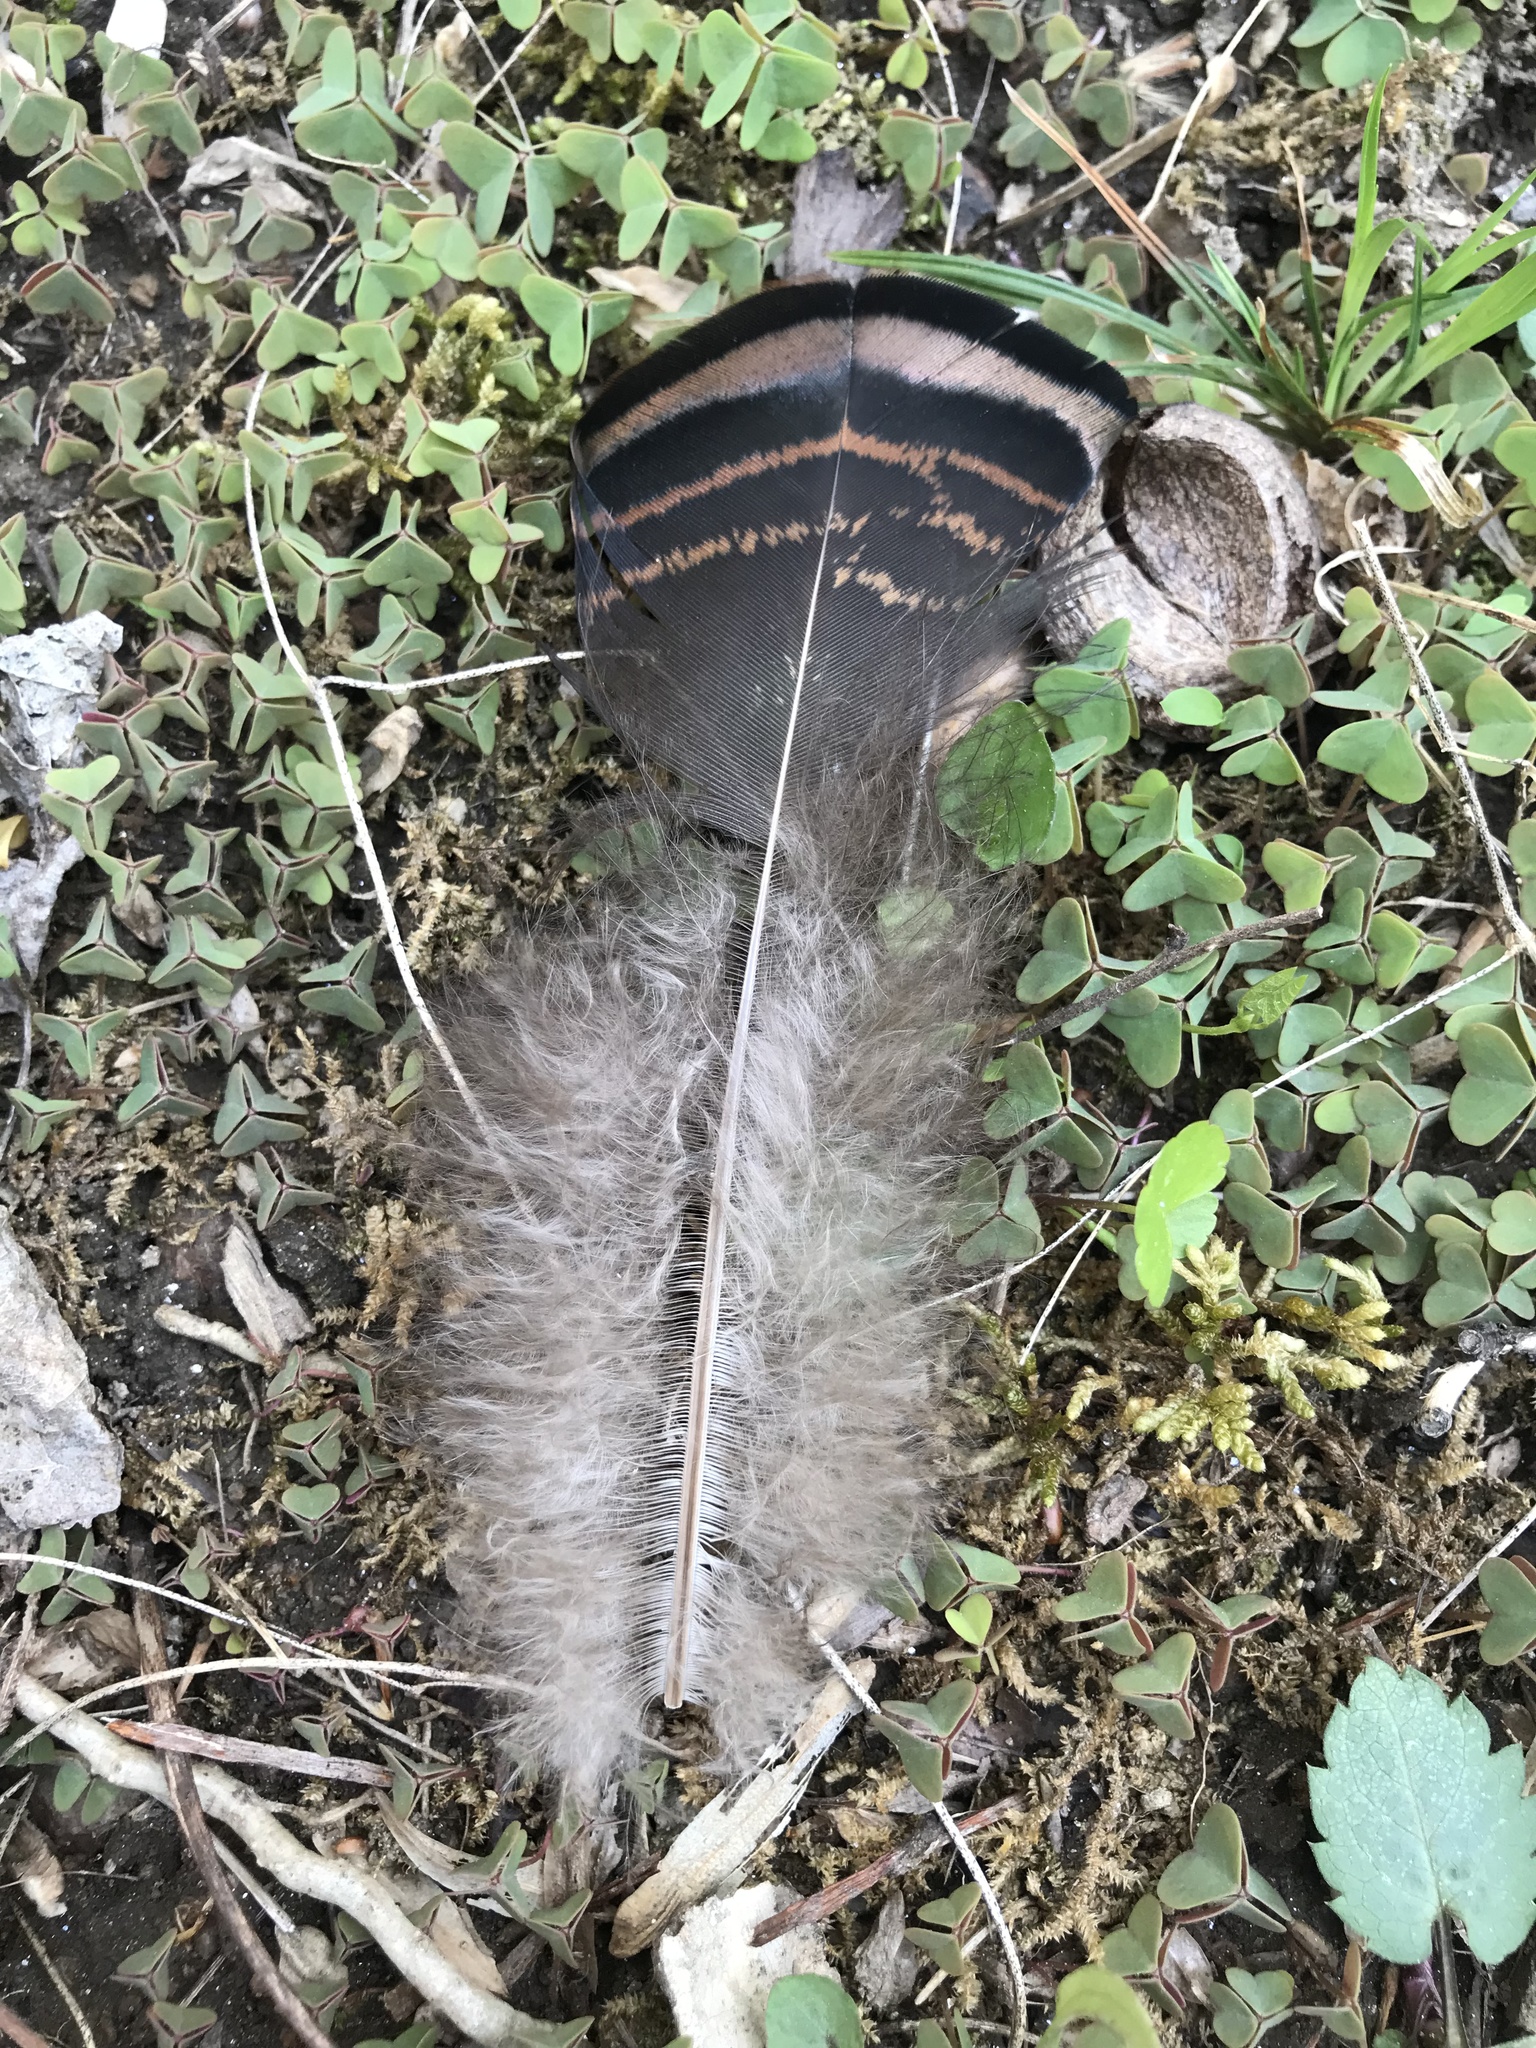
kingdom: Animalia
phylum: Chordata
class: Aves
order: Galliformes
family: Phasianidae
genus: Meleagris
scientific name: Meleagris gallopavo
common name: Wild turkey
